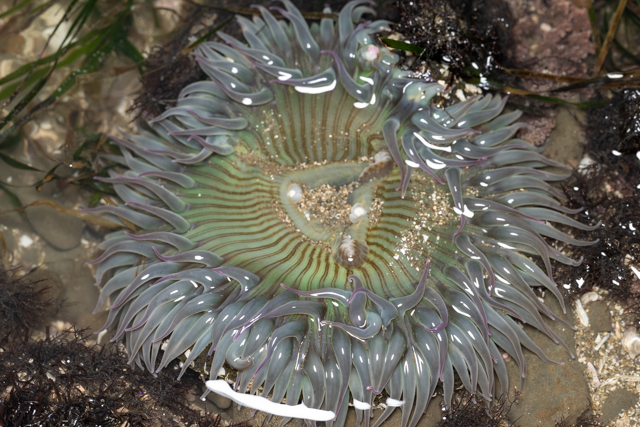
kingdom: Animalia
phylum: Cnidaria
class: Anthozoa
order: Actiniaria
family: Actiniidae
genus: Anthopleura
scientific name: Anthopleura sola
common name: Sun anemone
